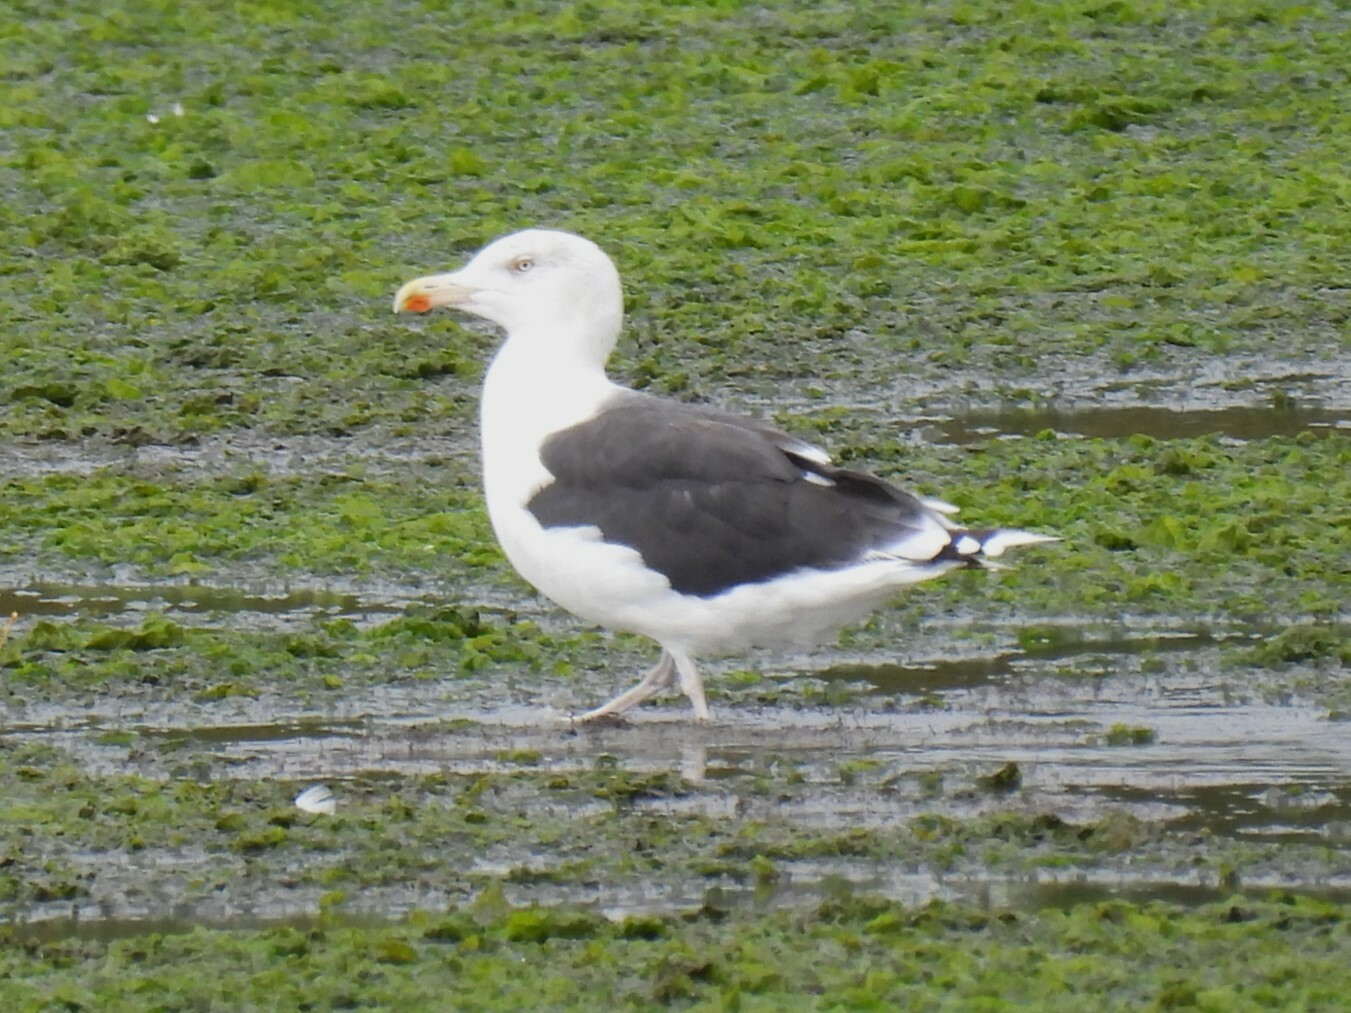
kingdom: Animalia
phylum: Chordata
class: Aves
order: Charadriiformes
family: Laridae
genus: Larus
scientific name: Larus marinus
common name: Great black-backed gull
